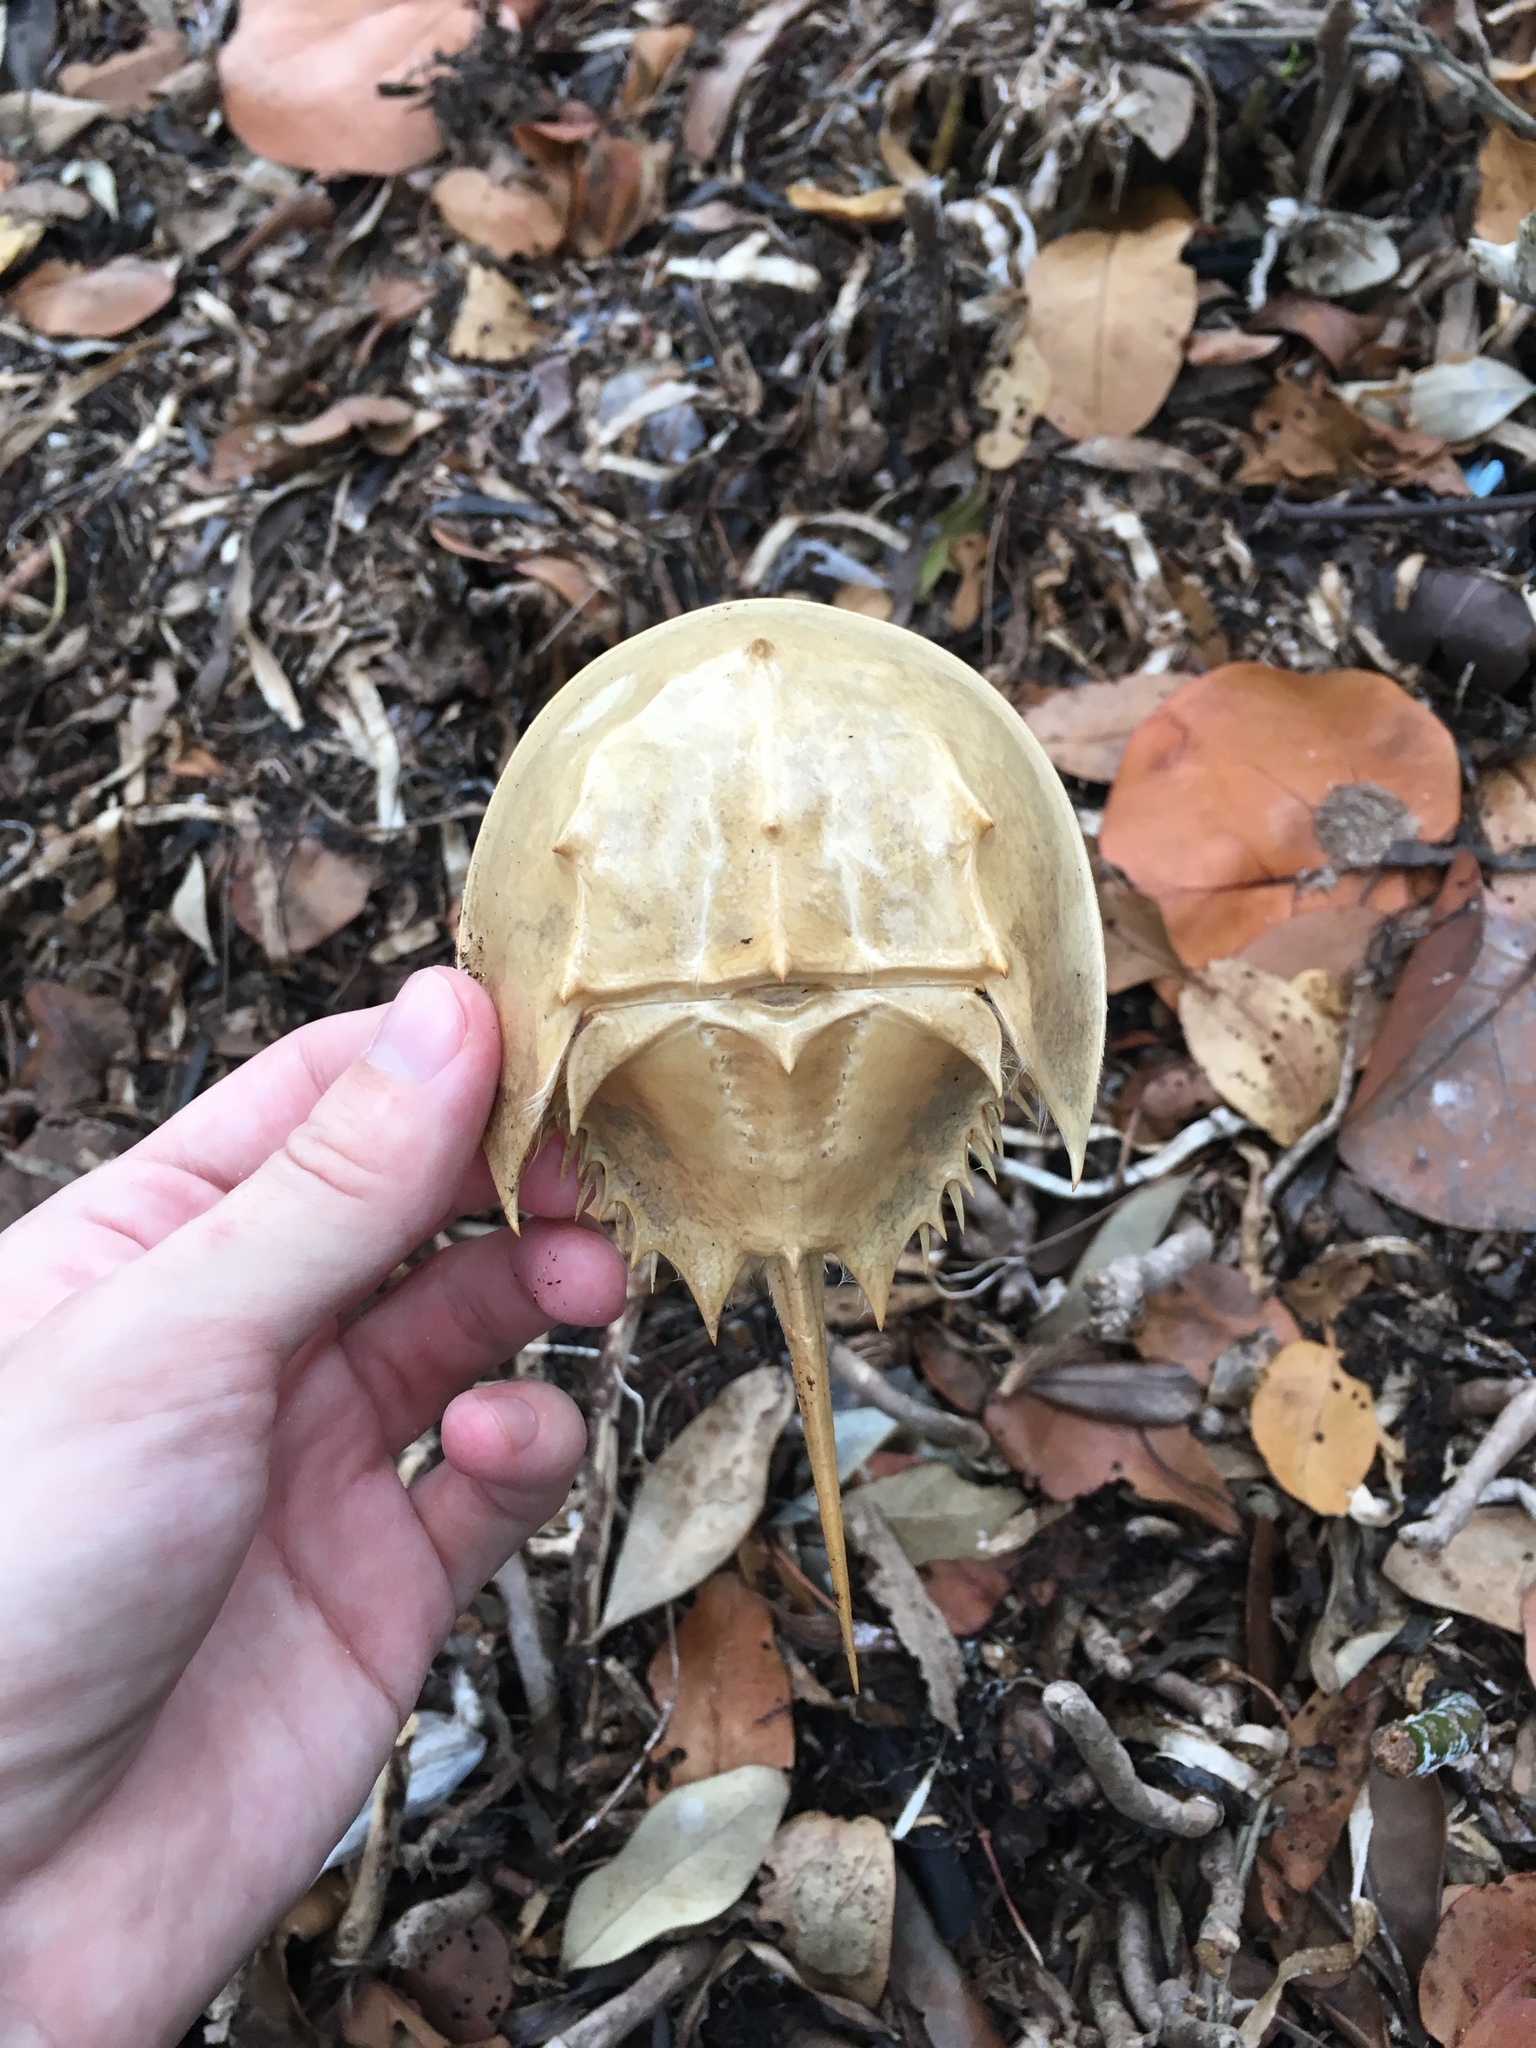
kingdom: Animalia
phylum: Arthropoda
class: Merostomata
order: Xiphosurida
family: Limulidae
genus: Limulus
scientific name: Limulus polyphemus
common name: Horseshoe crab
